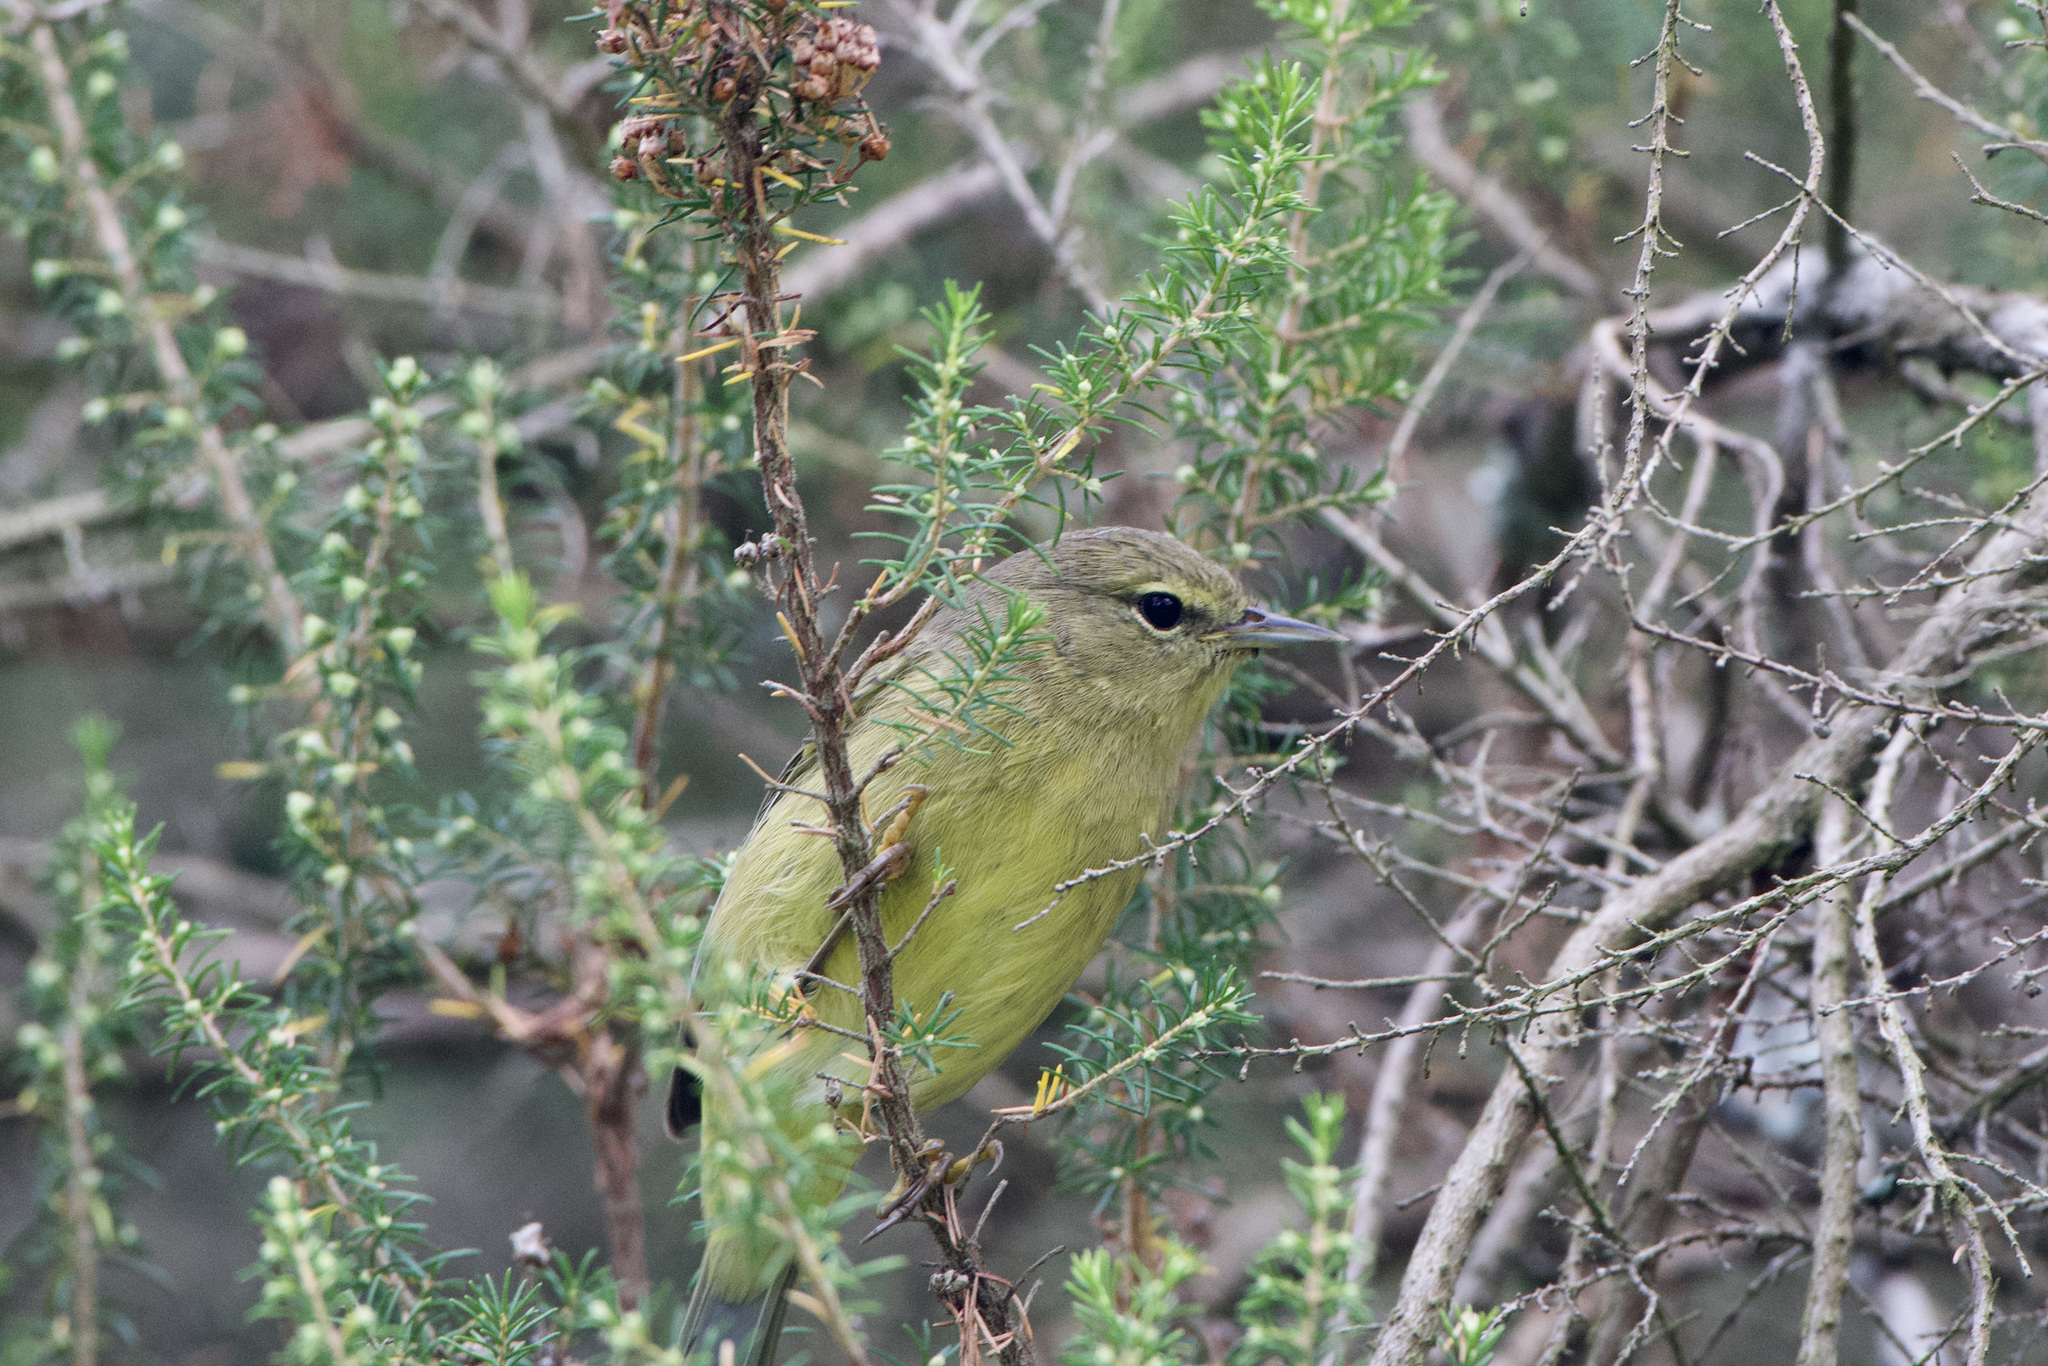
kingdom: Animalia
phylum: Chordata
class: Aves
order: Passeriformes
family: Parulidae
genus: Leiothlypis
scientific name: Leiothlypis celata
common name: Orange-crowned warbler
